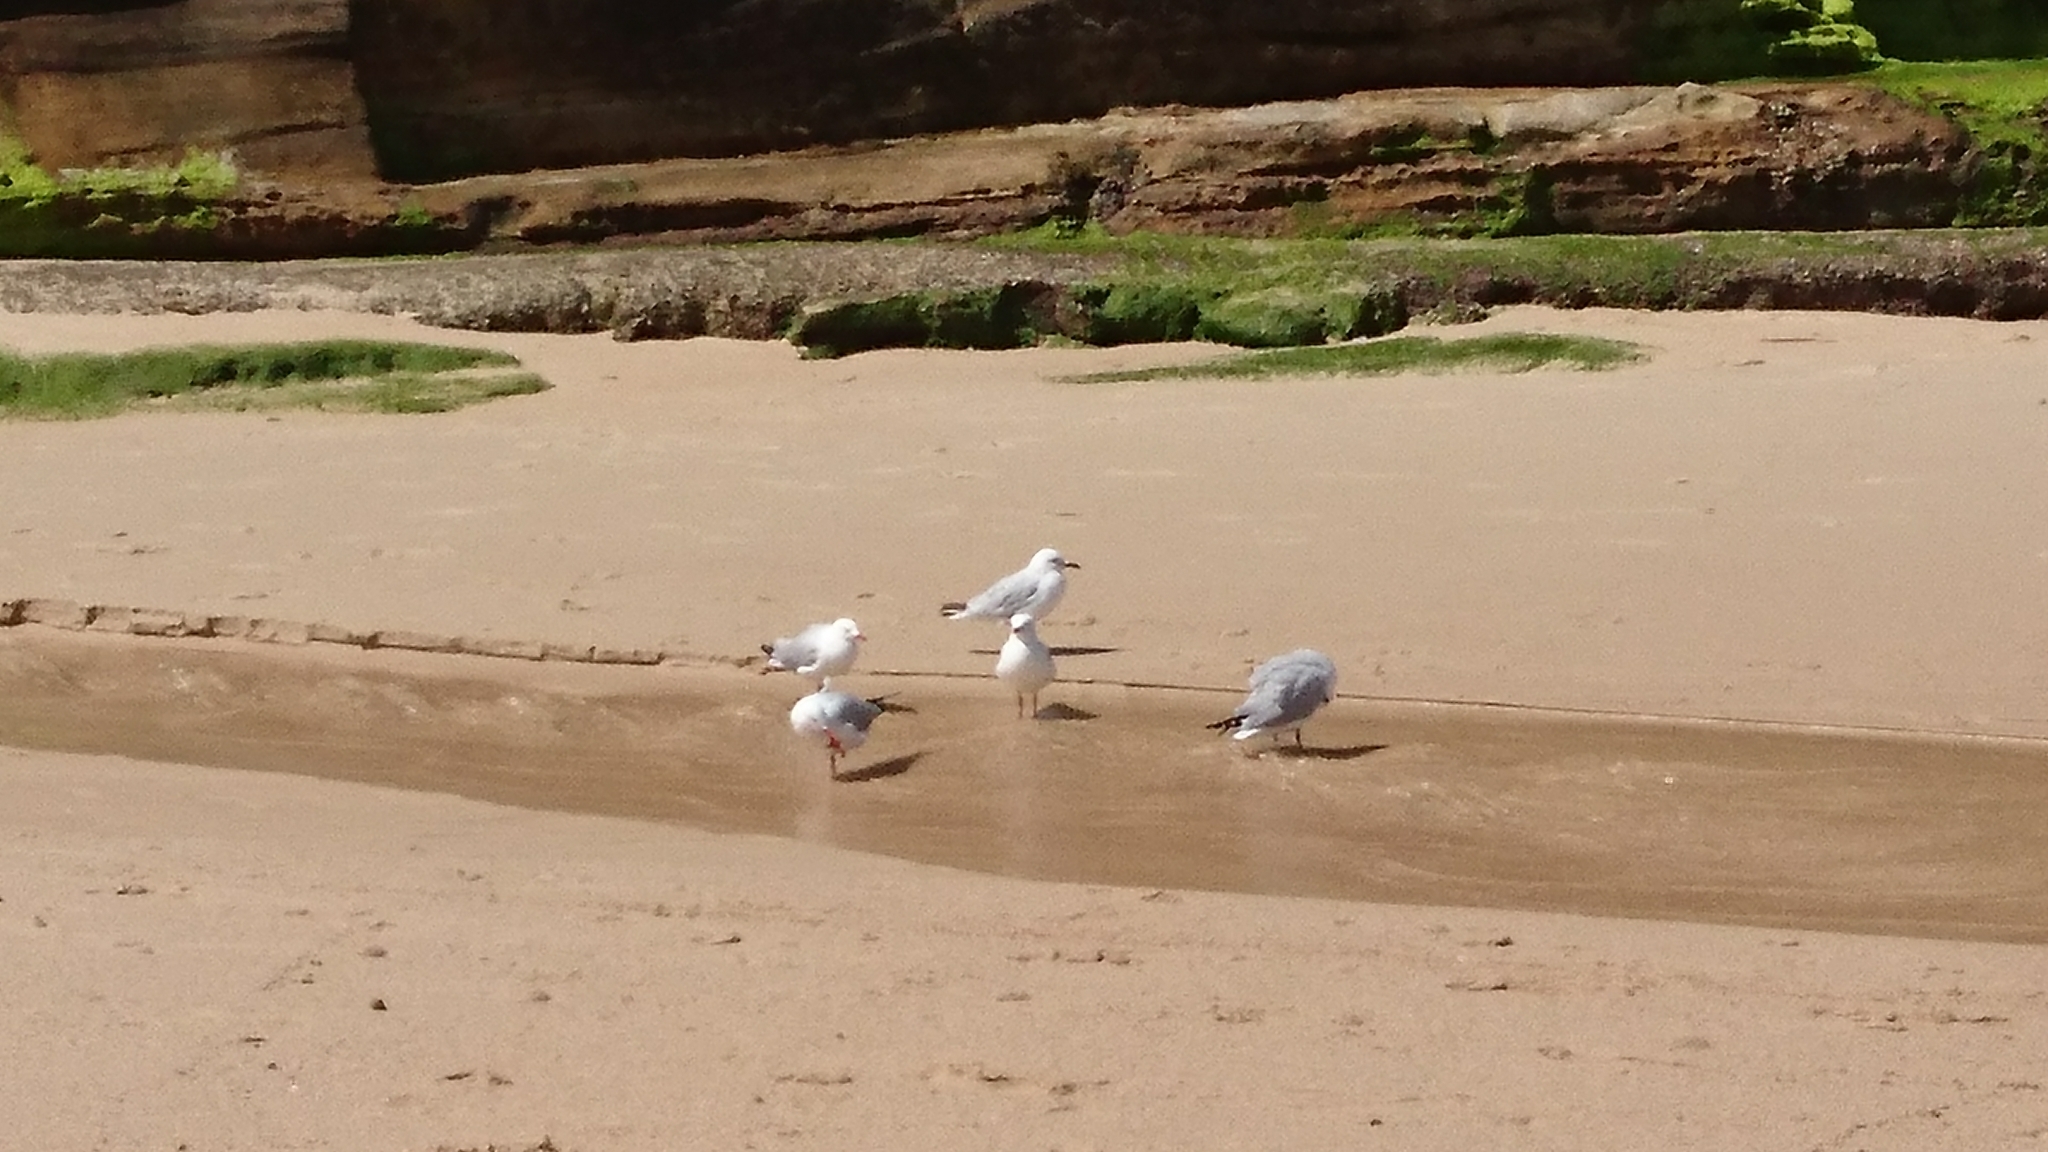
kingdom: Animalia
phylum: Chordata
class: Aves
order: Charadriiformes
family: Laridae
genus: Chroicocephalus
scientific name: Chroicocephalus novaehollandiae
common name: Silver gull
